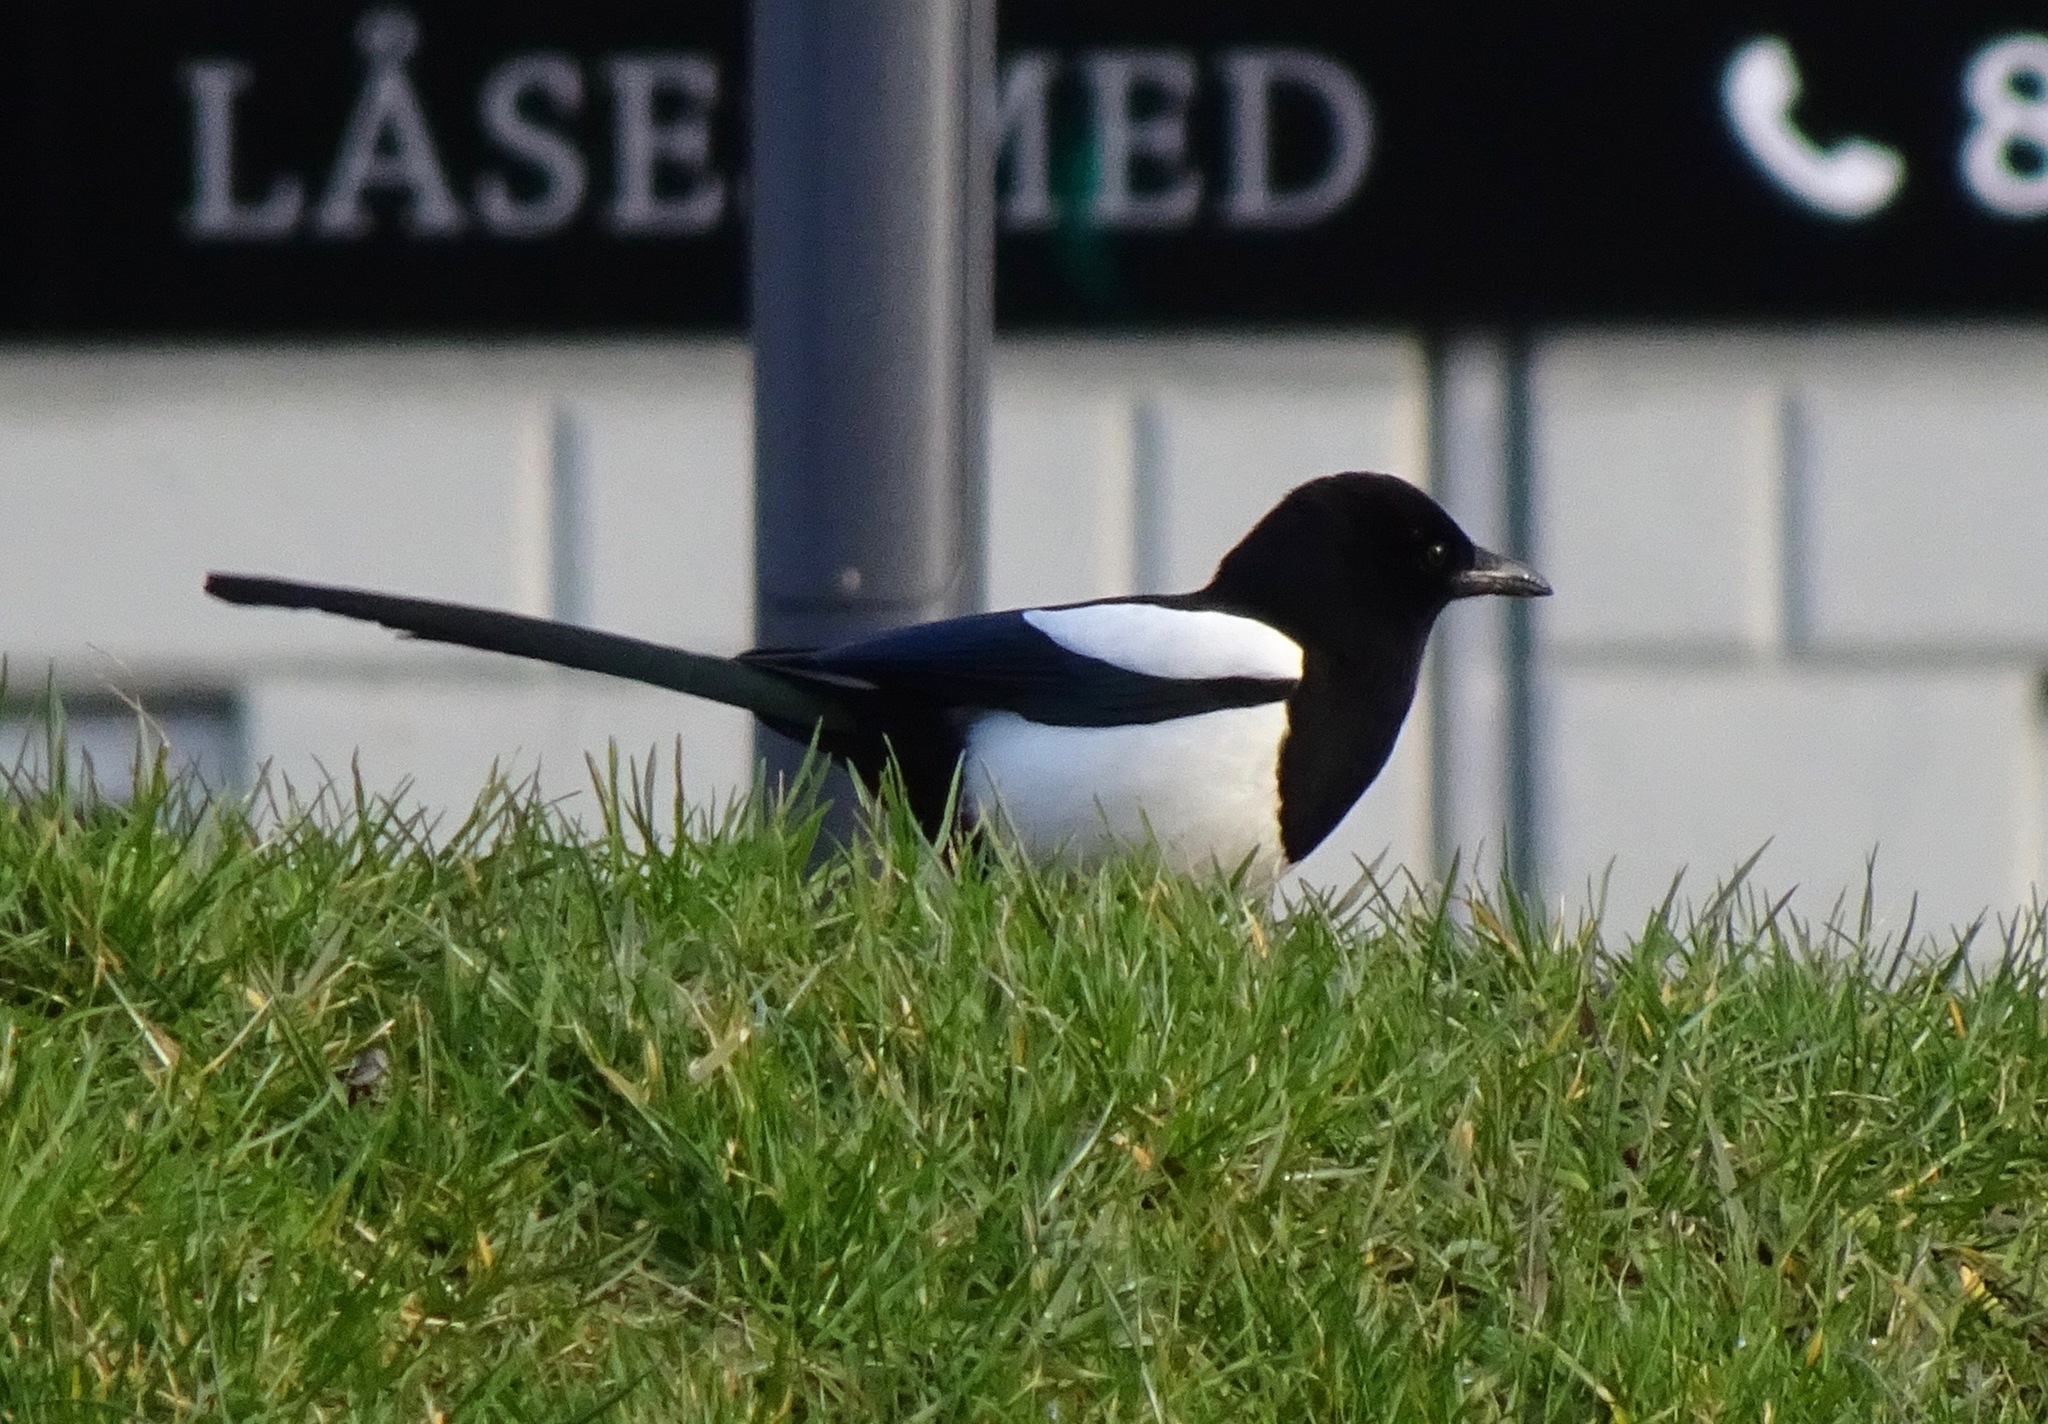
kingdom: Animalia
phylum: Chordata
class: Aves
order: Passeriformes
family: Corvidae
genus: Pica
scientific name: Pica pica
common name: Eurasian magpie
